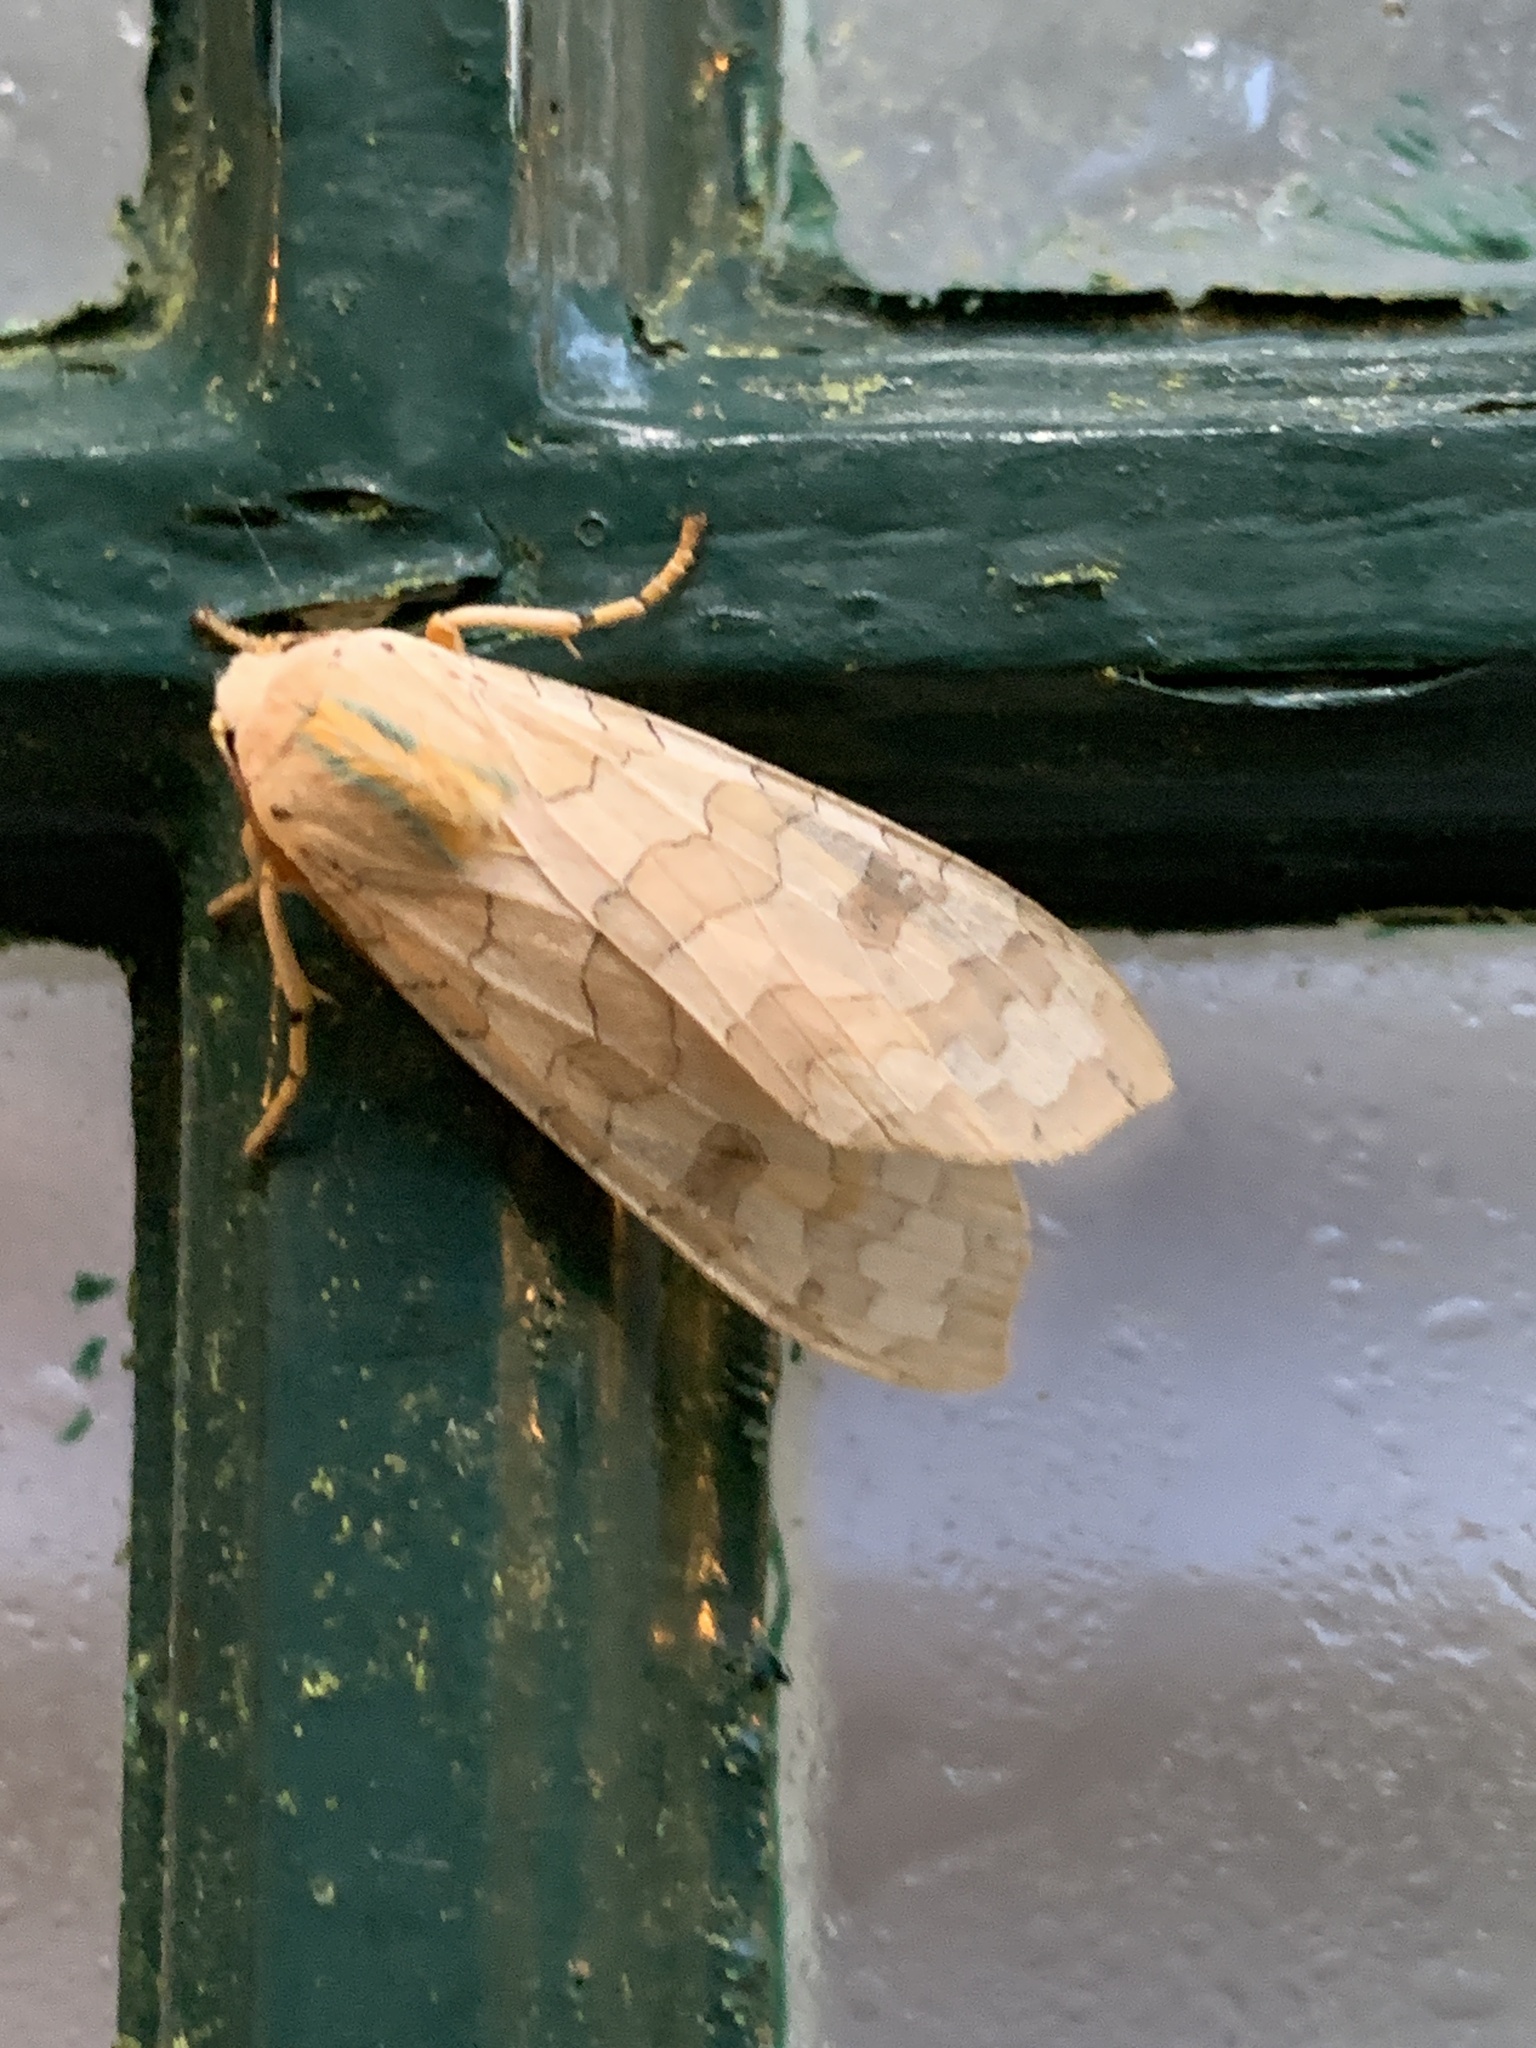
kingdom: Animalia
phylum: Arthropoda
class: Insecta
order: Lepidoptera
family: Erebidae
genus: Halysidota
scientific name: Halysidota
